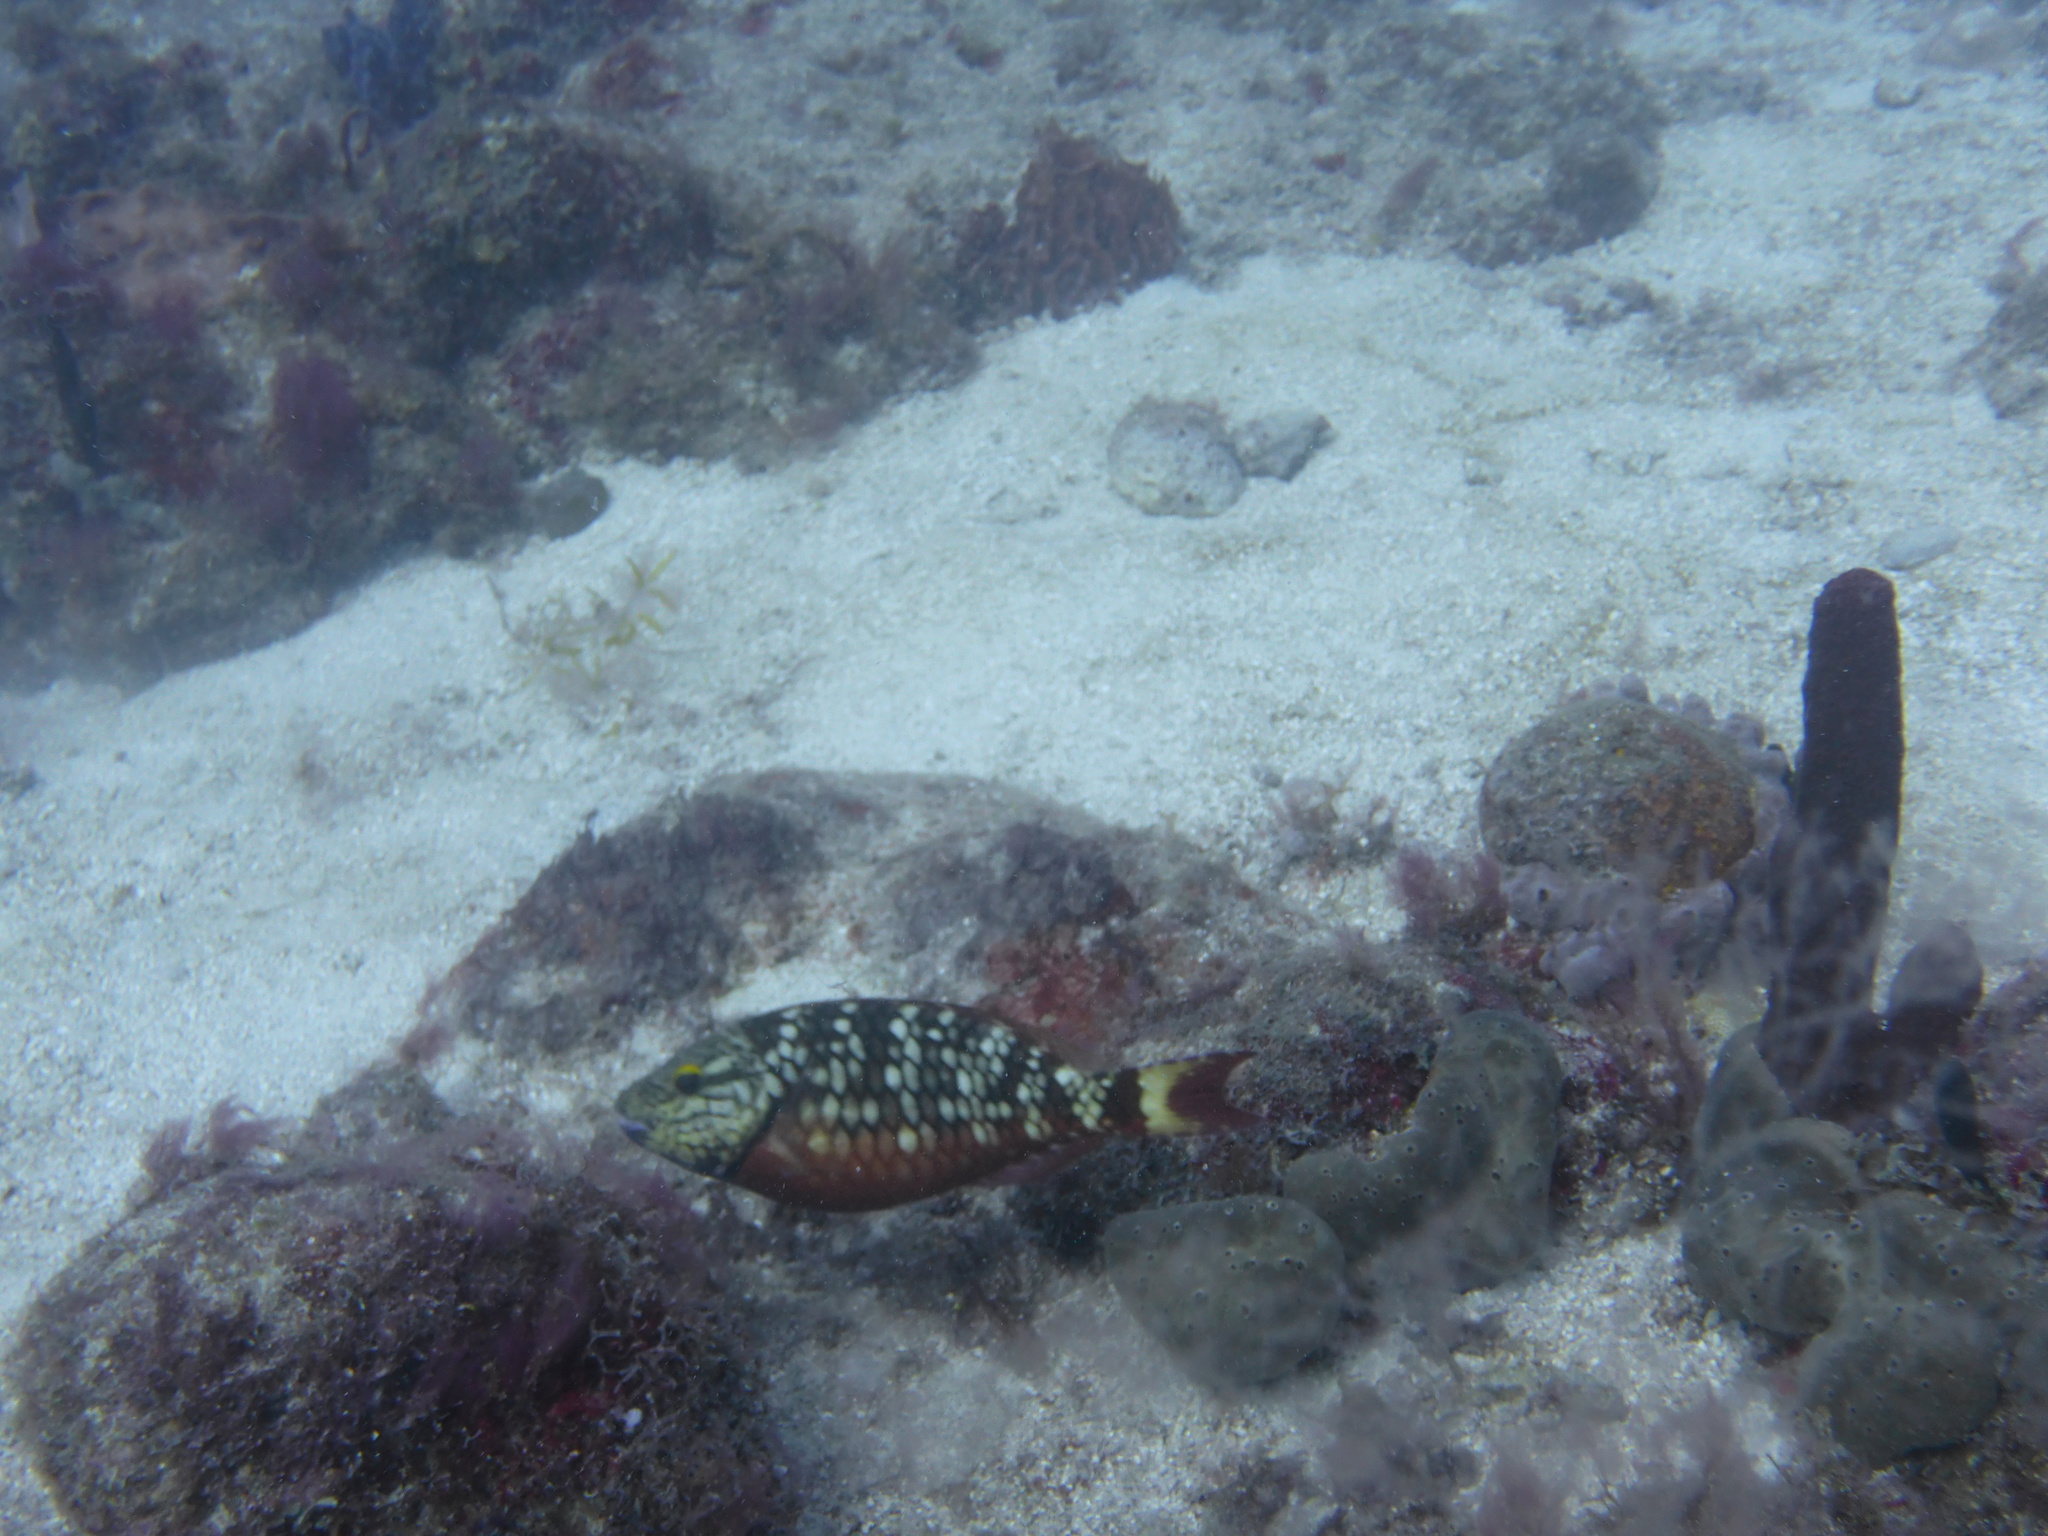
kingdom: Animalia
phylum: Chordata
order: Perciformes
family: Scaridae
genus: Sparisoma
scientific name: Sparisoma viride
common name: Stoplight parrotfish
